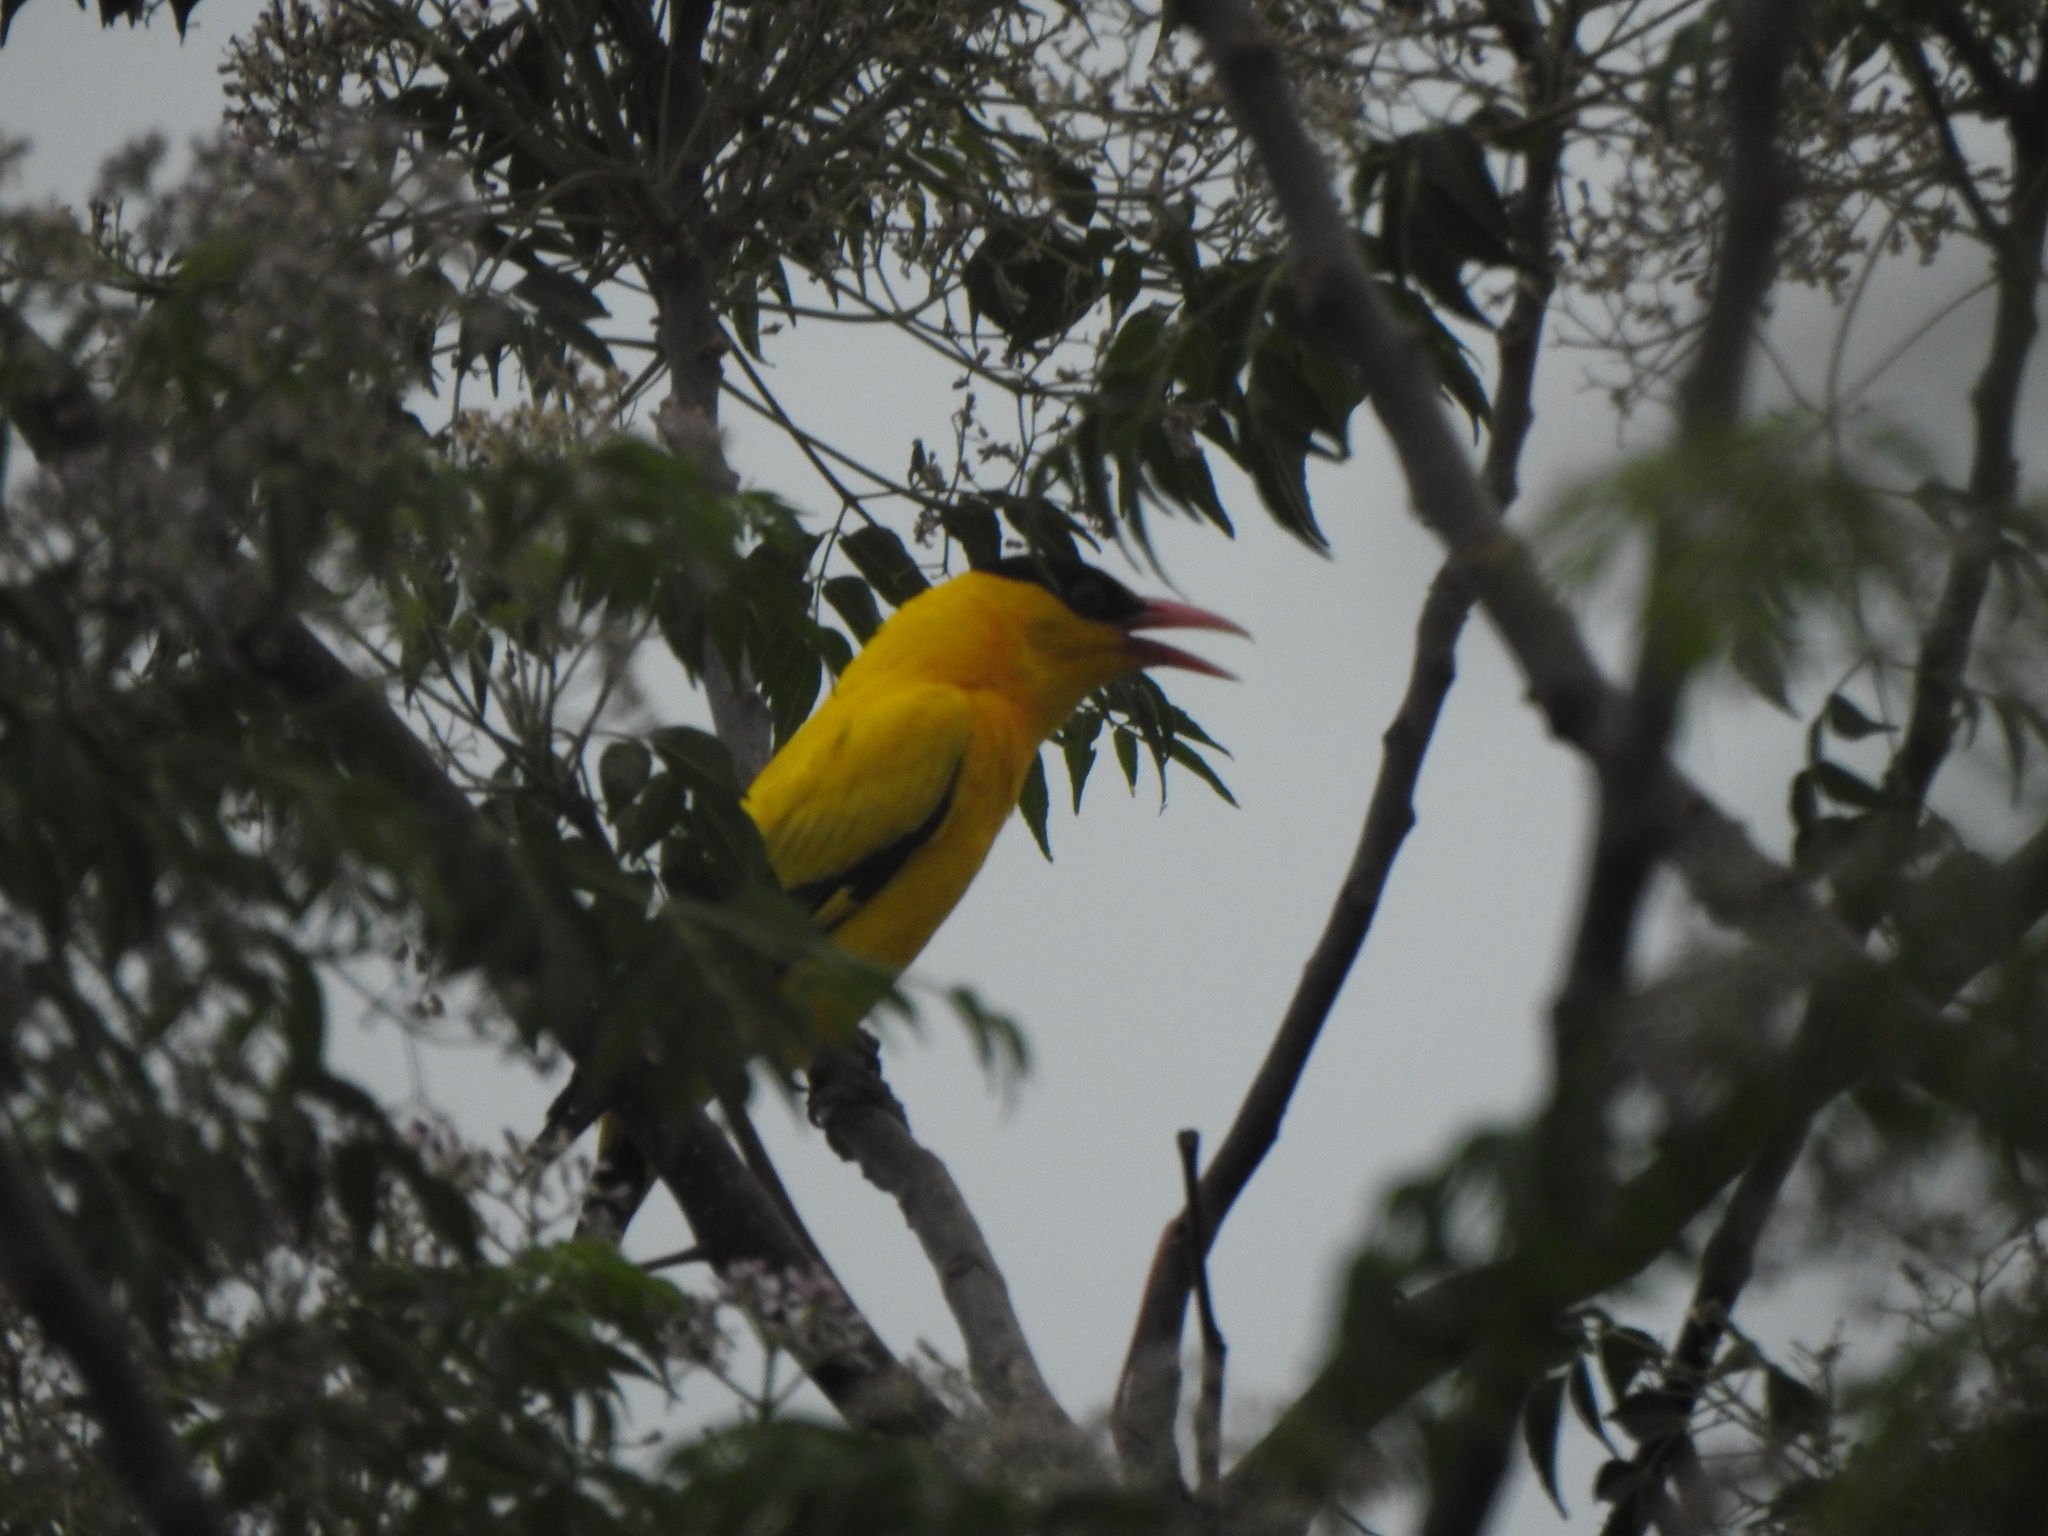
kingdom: Animalia
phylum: Chordata
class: Aves
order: Passeriformes
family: Oriolidae
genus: Oriolus
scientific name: Oriolus chinensis
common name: Black-naped oriole
